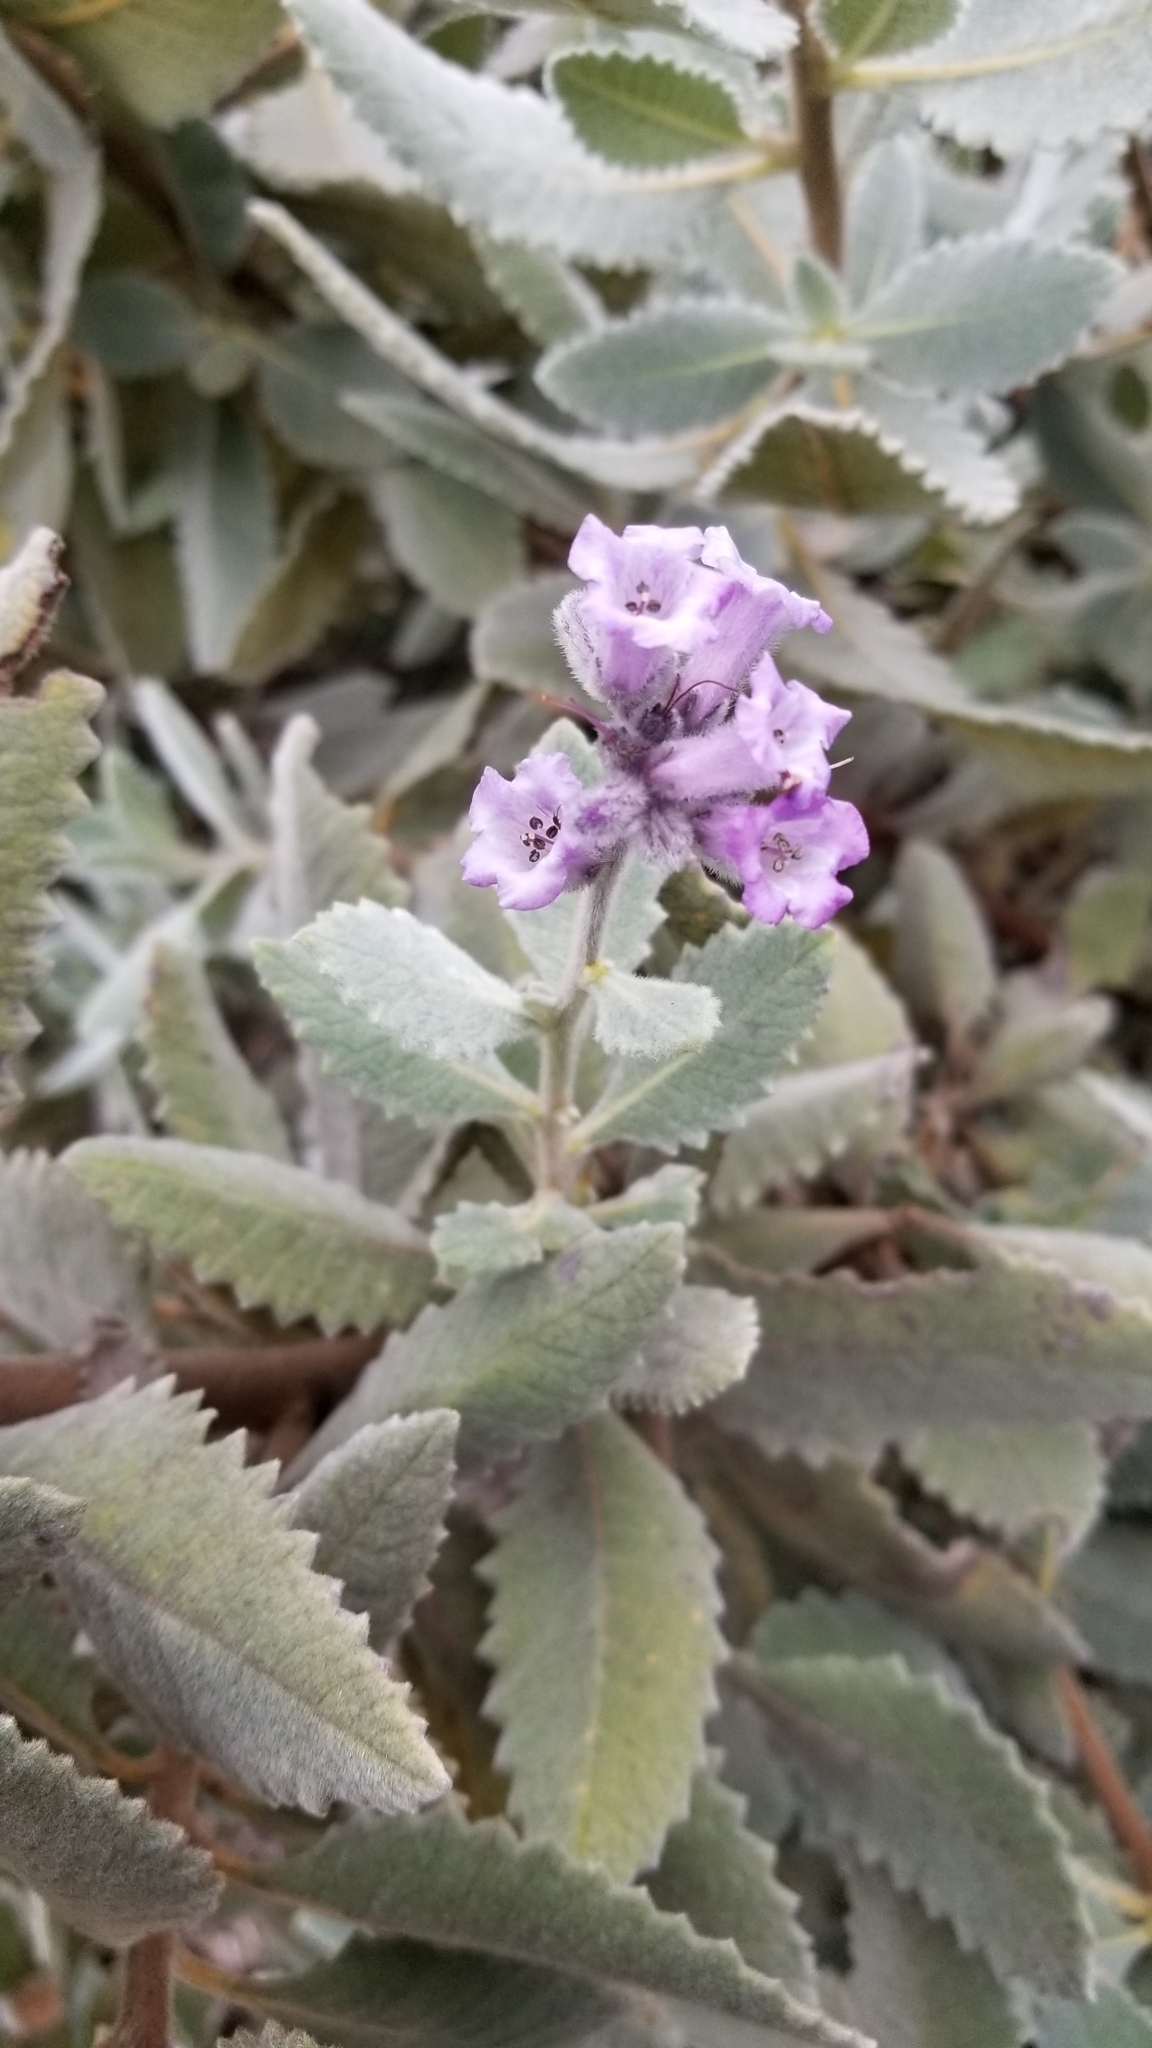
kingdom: Plantae
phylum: Tracheophyta
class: Magnoliopsida
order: Boraginales
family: Namaceae
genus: Eriodictyon
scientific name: Eriodictyon crassifolium
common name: Thick-leaf yerba-santa
